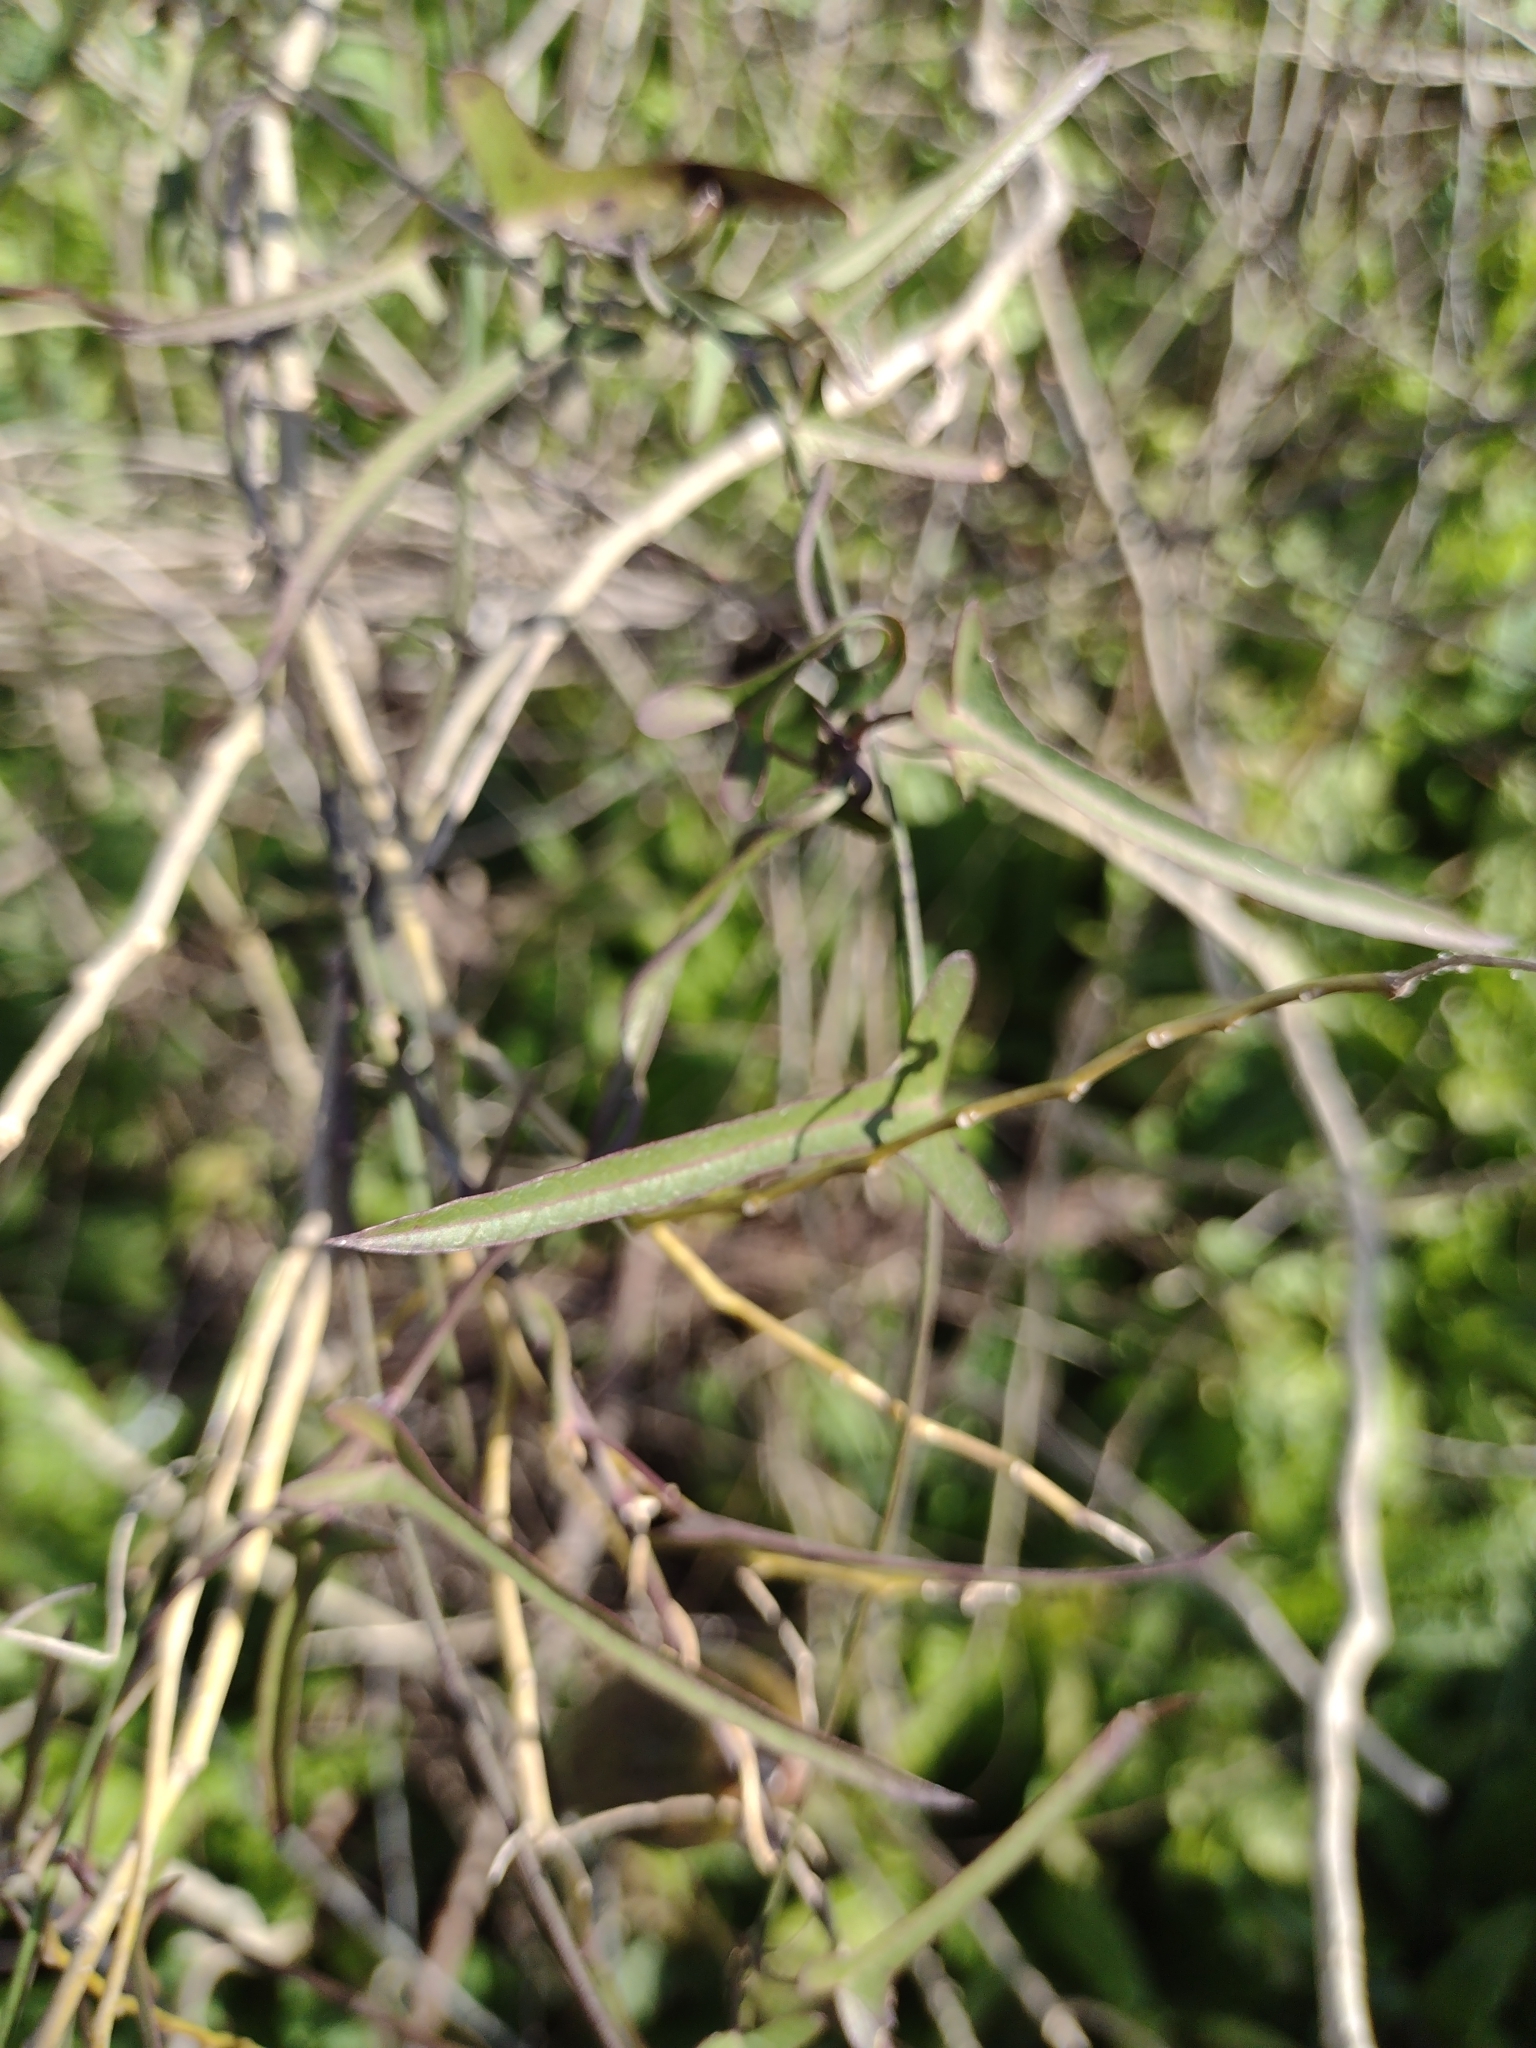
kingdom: Plantae
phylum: Tracheophyta
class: Magnoliopsida
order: Gentianales
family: Apocynaceae
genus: Araujia
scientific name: Araujia angustifolia
